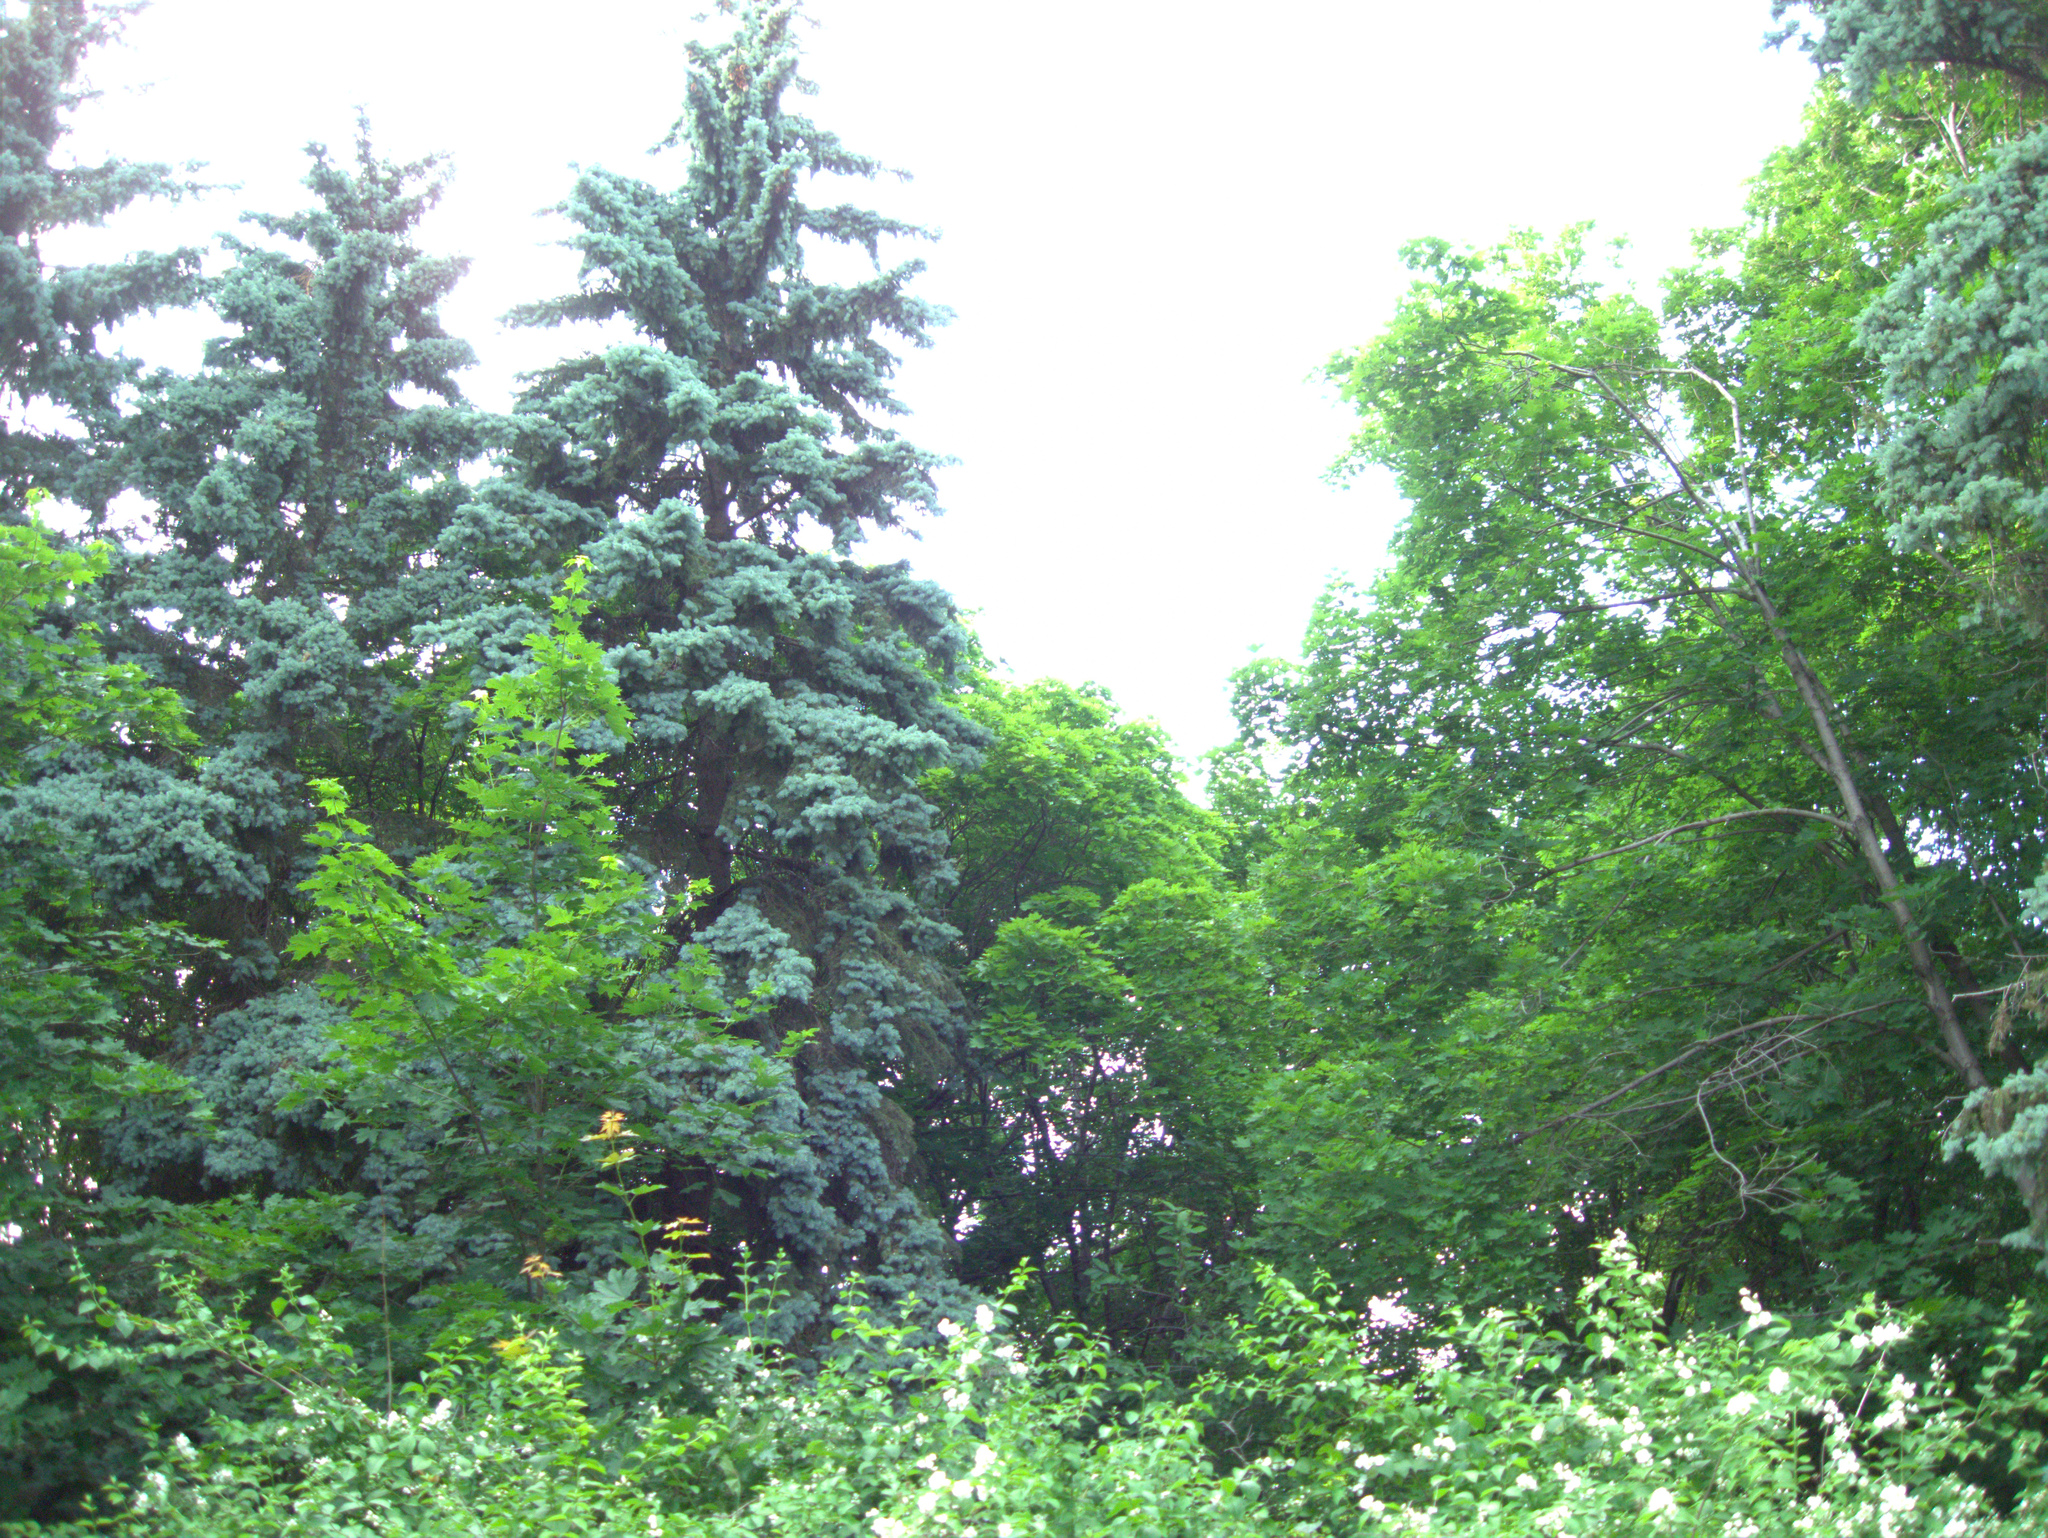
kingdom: Plantae
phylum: Tracheophyta
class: Magnoliopsida
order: Sapindales
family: Sapindaceae
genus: Acer
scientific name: Acer platanoides
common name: Norway maple
